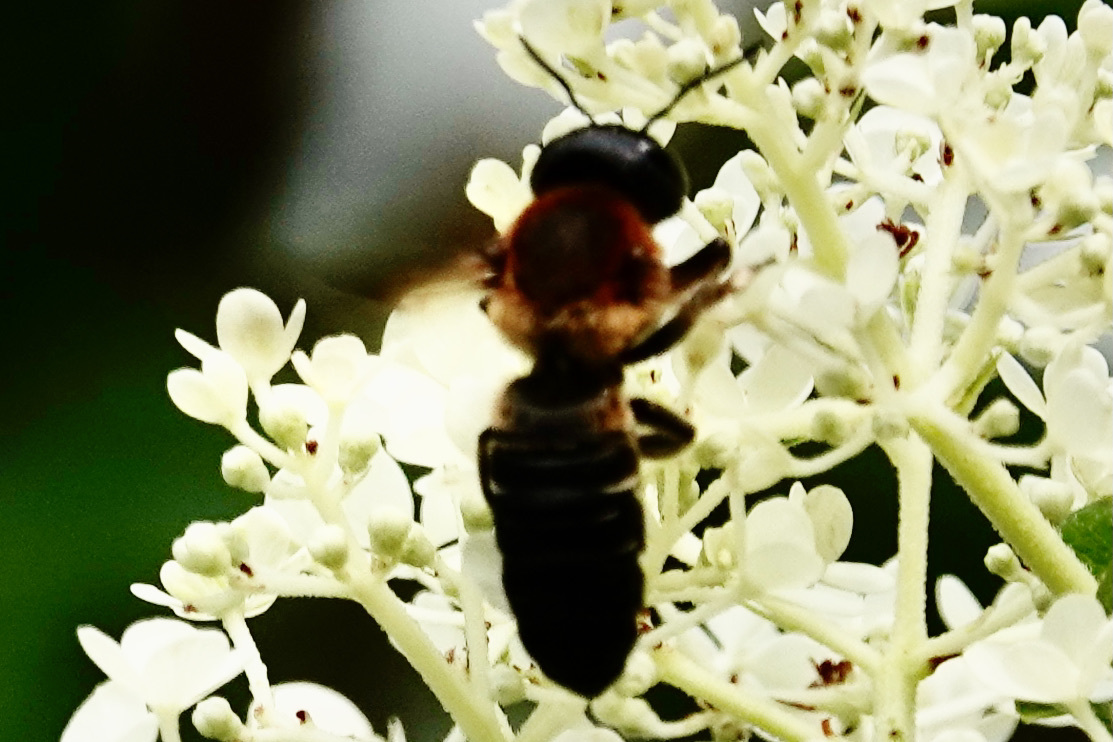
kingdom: Animalia
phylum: Arthropoda
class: Insecta
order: Hymenoptera
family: Megachilidae
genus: Megachile
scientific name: Megachile sculpturalis
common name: Sculptured resin bee
